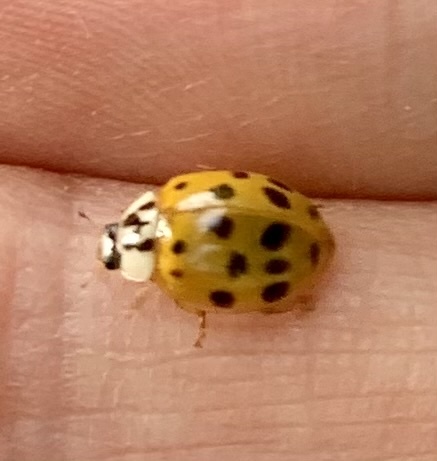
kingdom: Animalia
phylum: Arthropoda
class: Insecta
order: Coleoptera
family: Coccinellidae
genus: Harmonia
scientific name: Harmonia axyridis
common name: Harlequin ladybird
